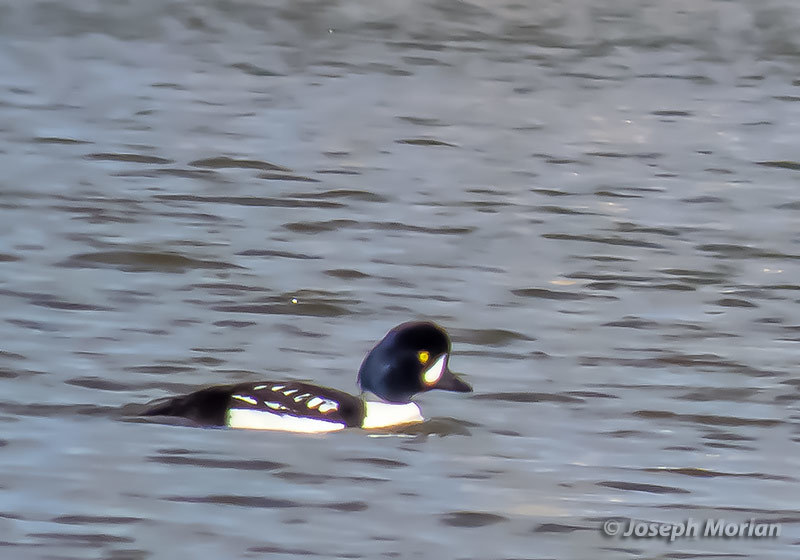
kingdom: Animalia
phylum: Chordata
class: Aves
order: Anseriformes
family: Anatidae
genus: Bucephala
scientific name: Bucephala islandica
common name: Barrow's goldeneye
